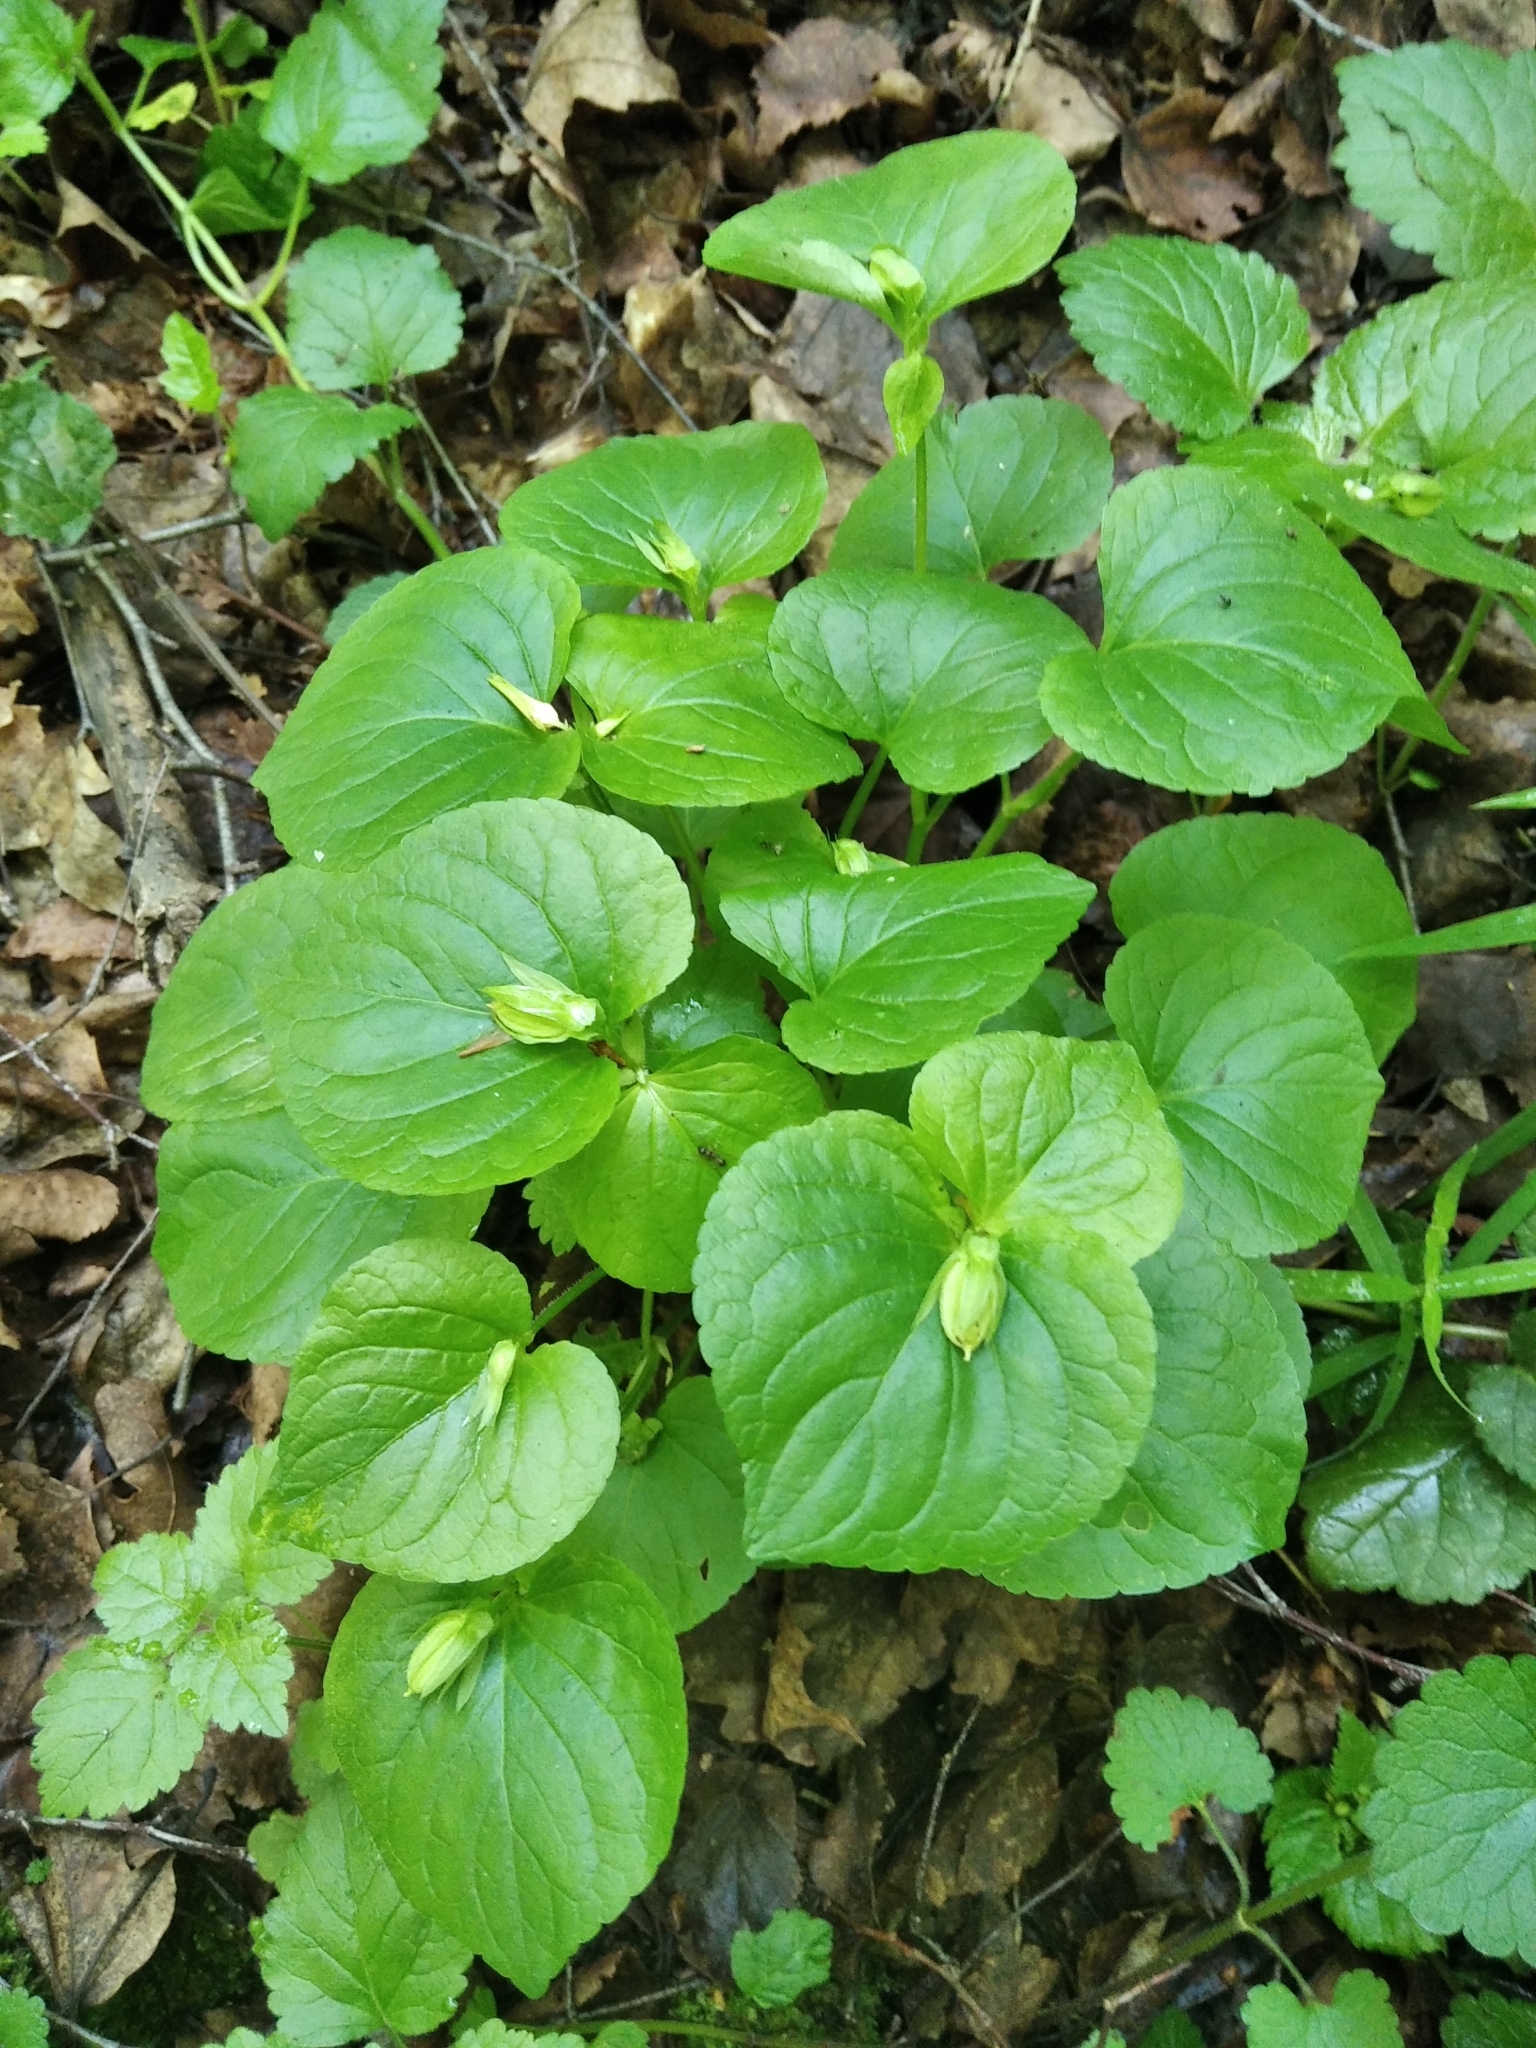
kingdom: Plantae
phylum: Tracheophyta
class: Magnoliopsida
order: Malpighiales
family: Violaceae
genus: Viola
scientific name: Viola mirabilis
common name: Wonder violet
